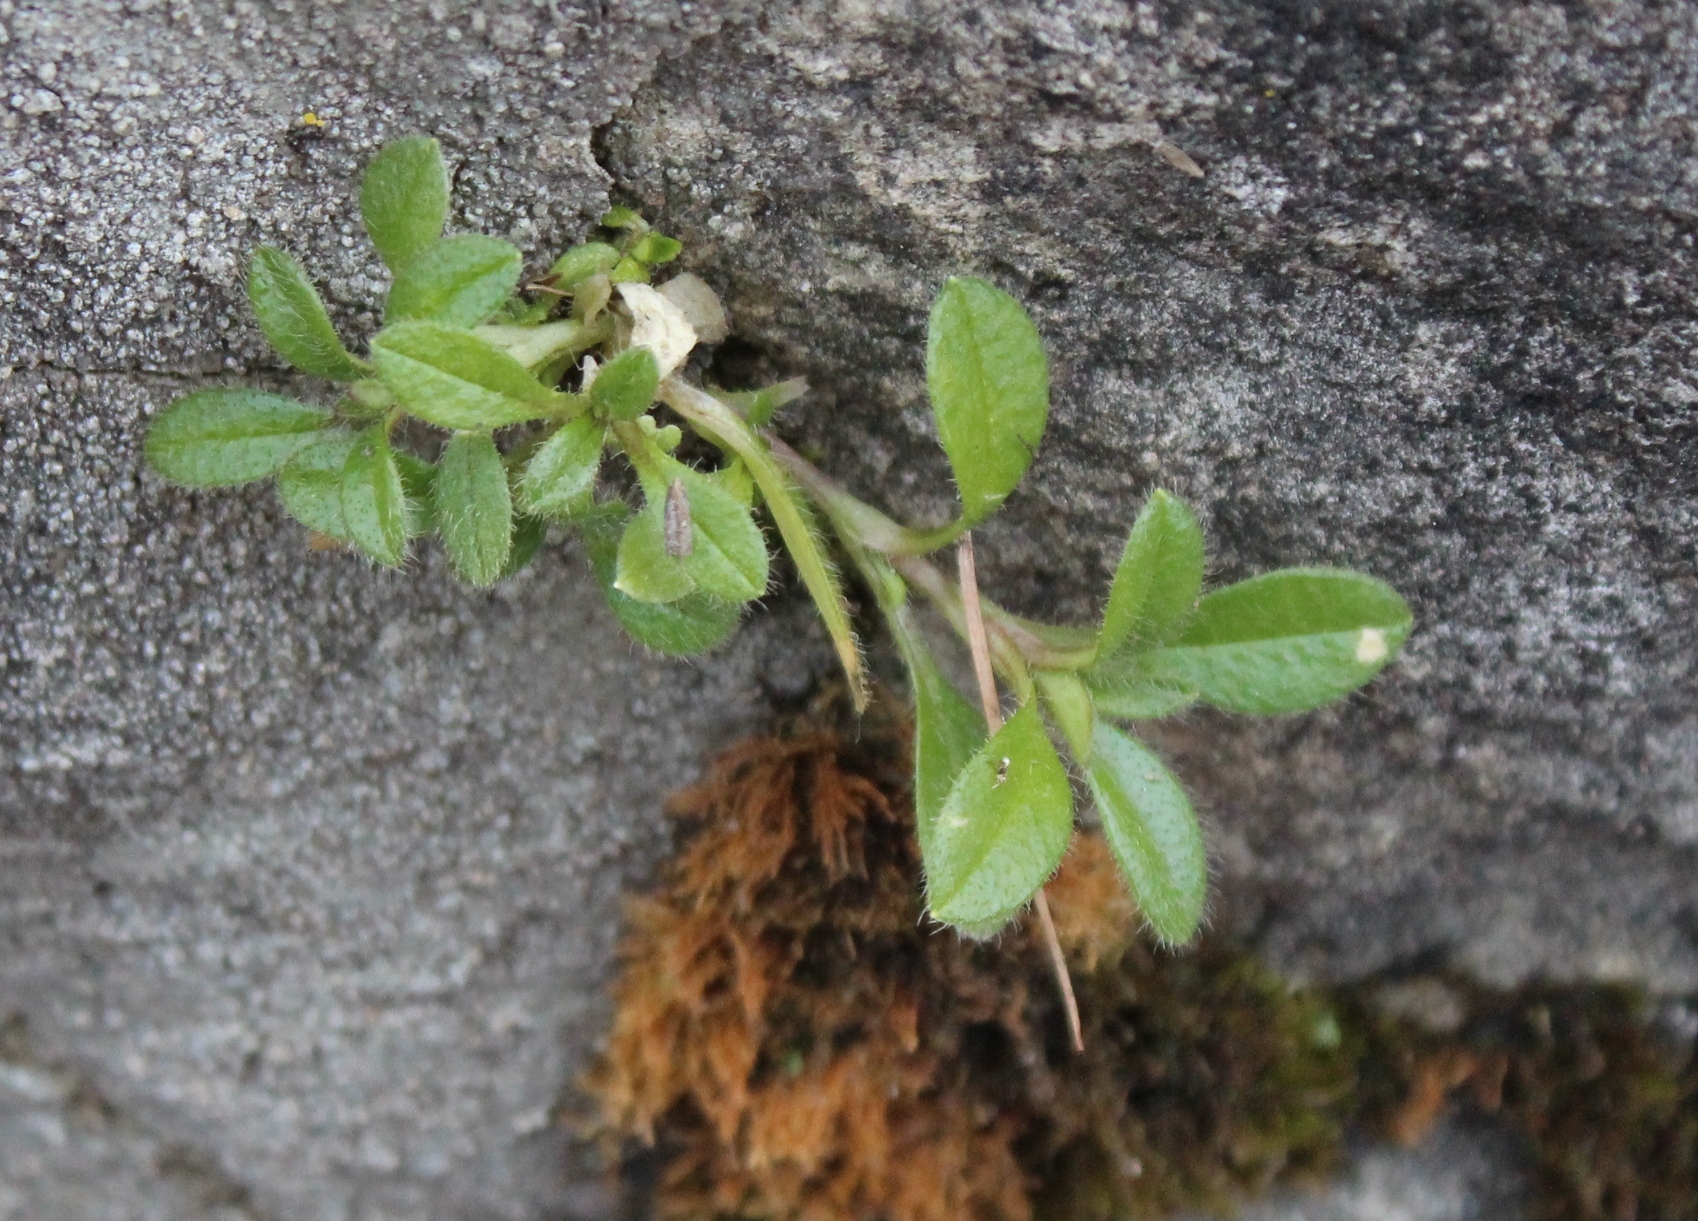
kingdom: Plantae
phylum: Tracheophyta
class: Magnoliopsida
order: Caryophyllales
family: Caryophyllaceae
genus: Cerastium
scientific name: Cerastium holosteoides
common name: Big chickweed
